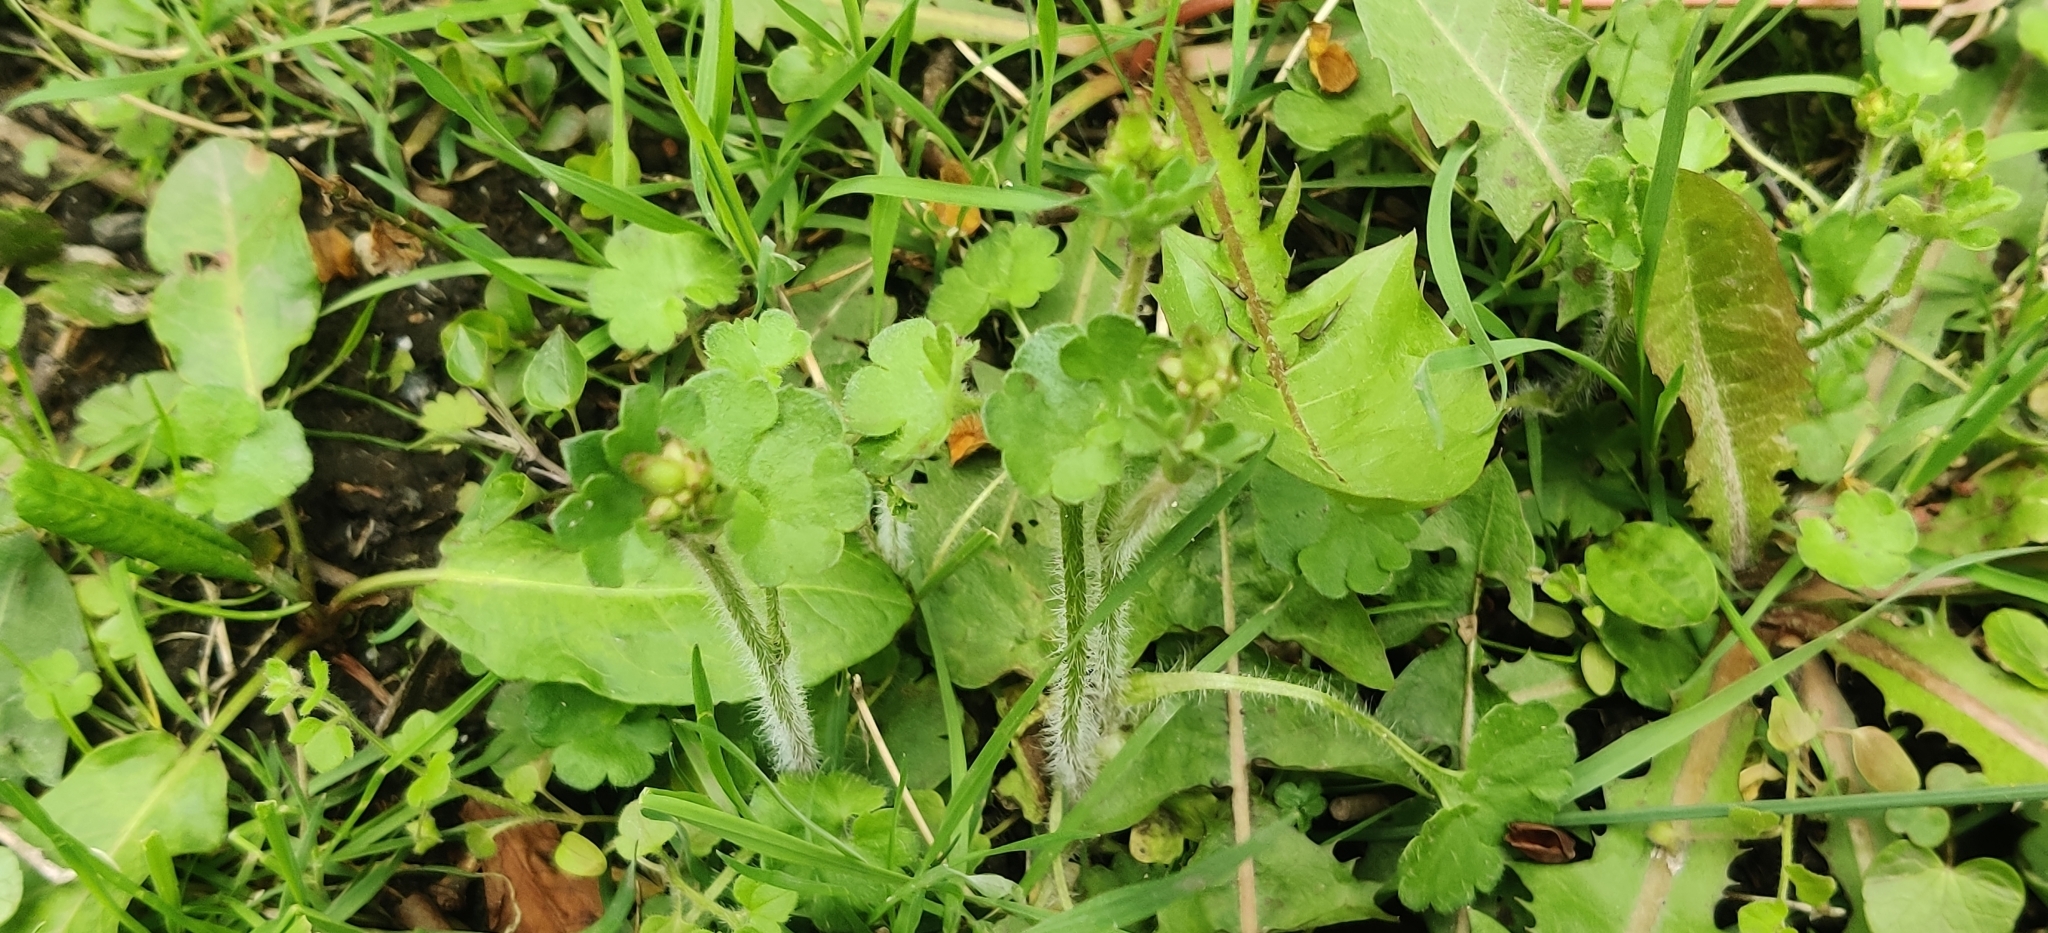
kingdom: Plantae
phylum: Tracheophyta
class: Magnoliopsida
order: Saxifragales
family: Saxifragaceae
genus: Saxifraga
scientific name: Saxifraga granulata
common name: Meadow saxifrage
